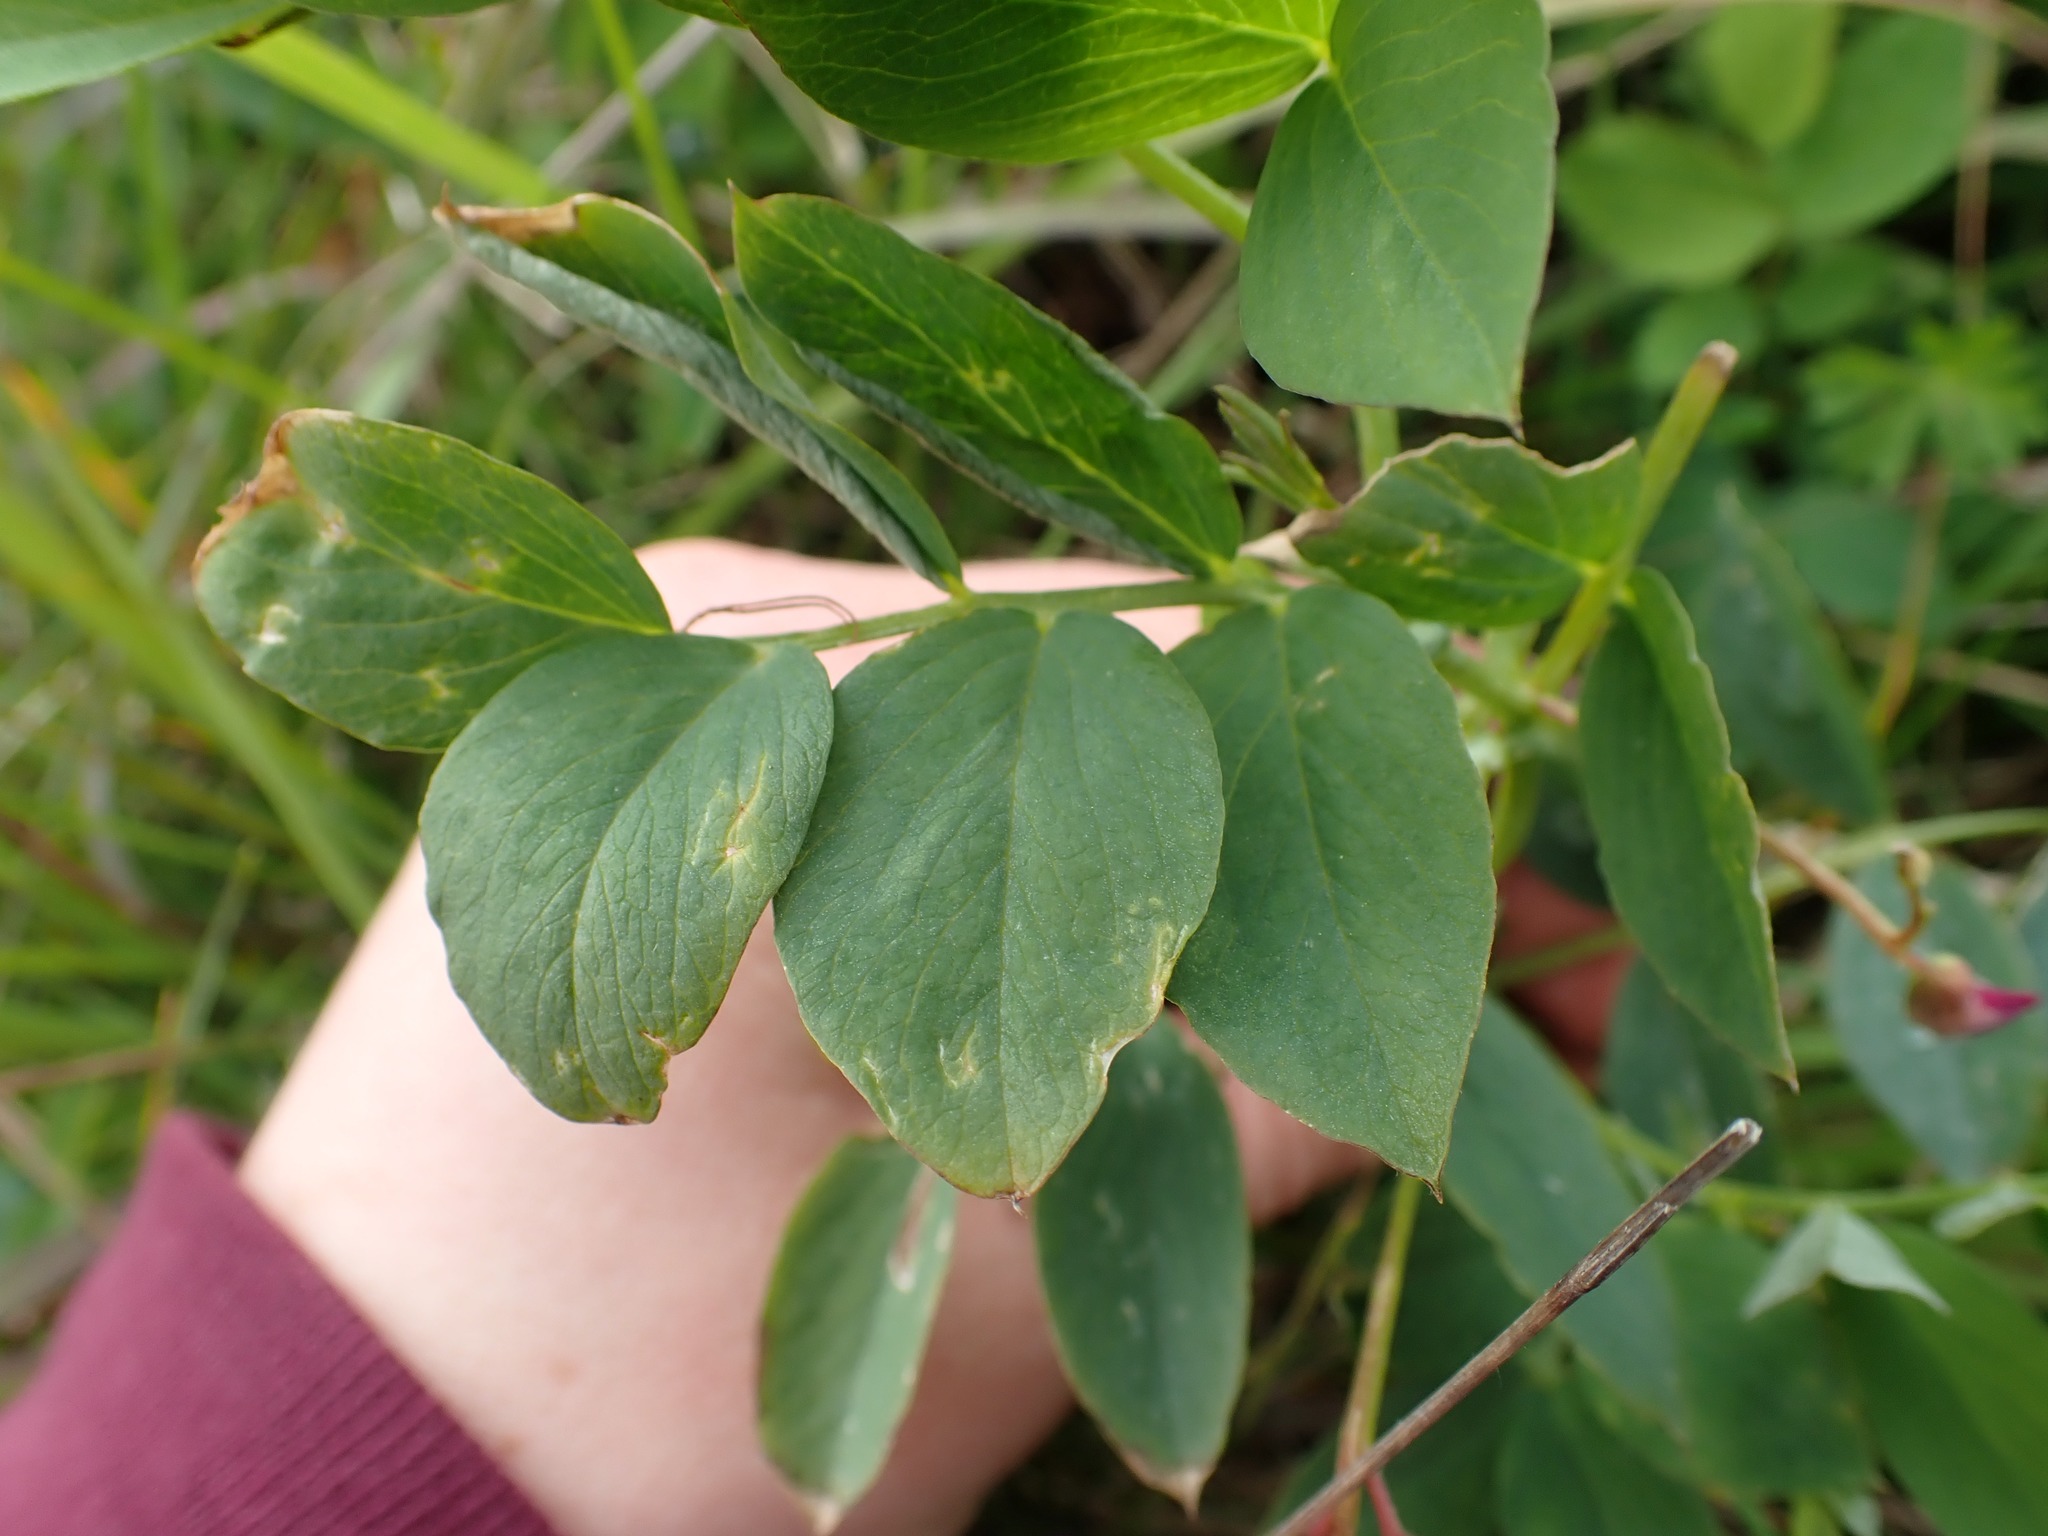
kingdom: Plantae
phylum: Tracheophyta
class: Magnoliopsida
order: Fabales
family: Fabaceae
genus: Lathyrus
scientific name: Lathyrus nevadensis
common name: Sierra nevada peavine
